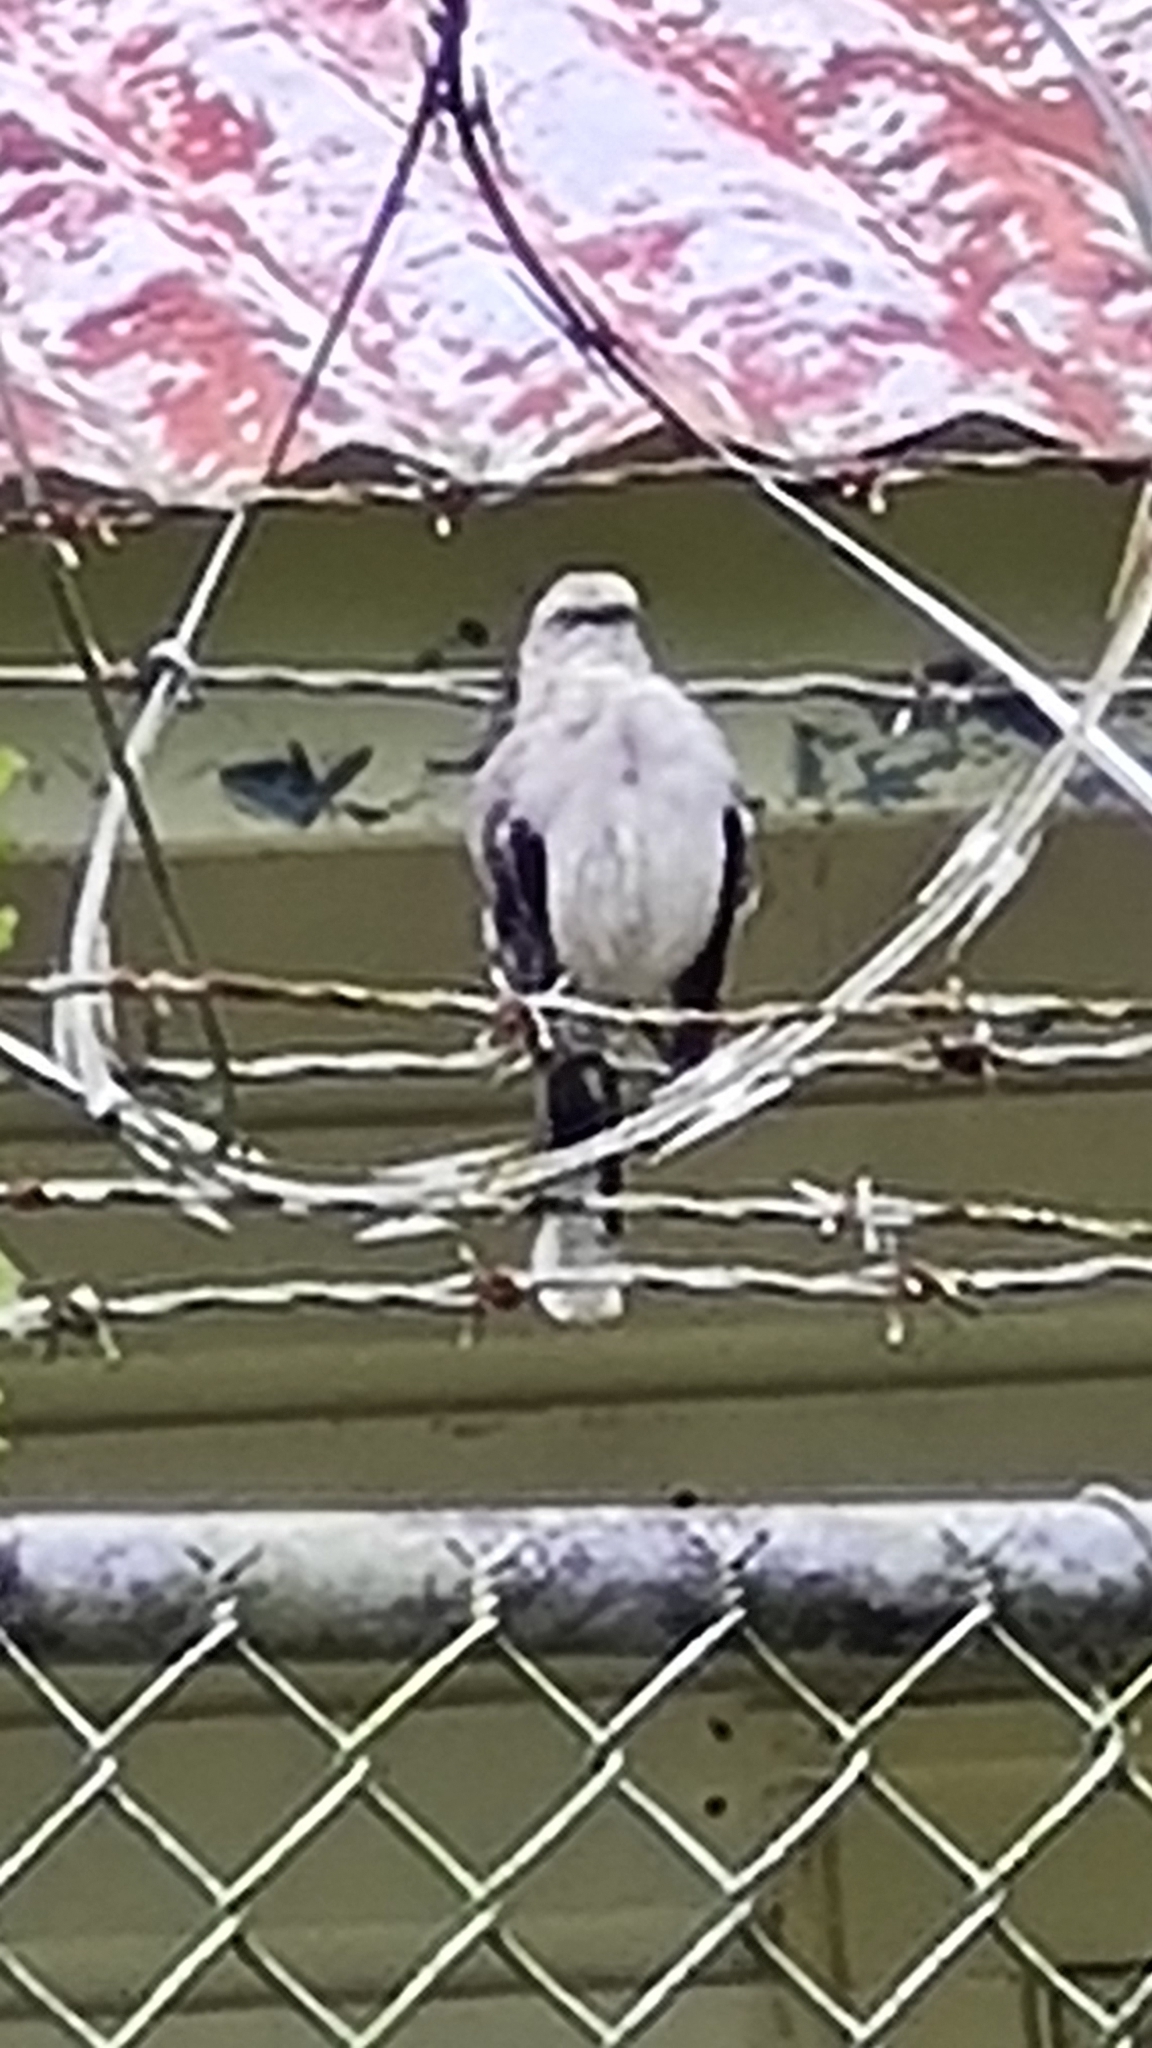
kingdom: Animalia
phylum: Chordata
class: Aves
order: Passeriformes
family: Mimidae
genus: Mimus
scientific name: Mimus gilvus
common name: Tropical mockingbird
